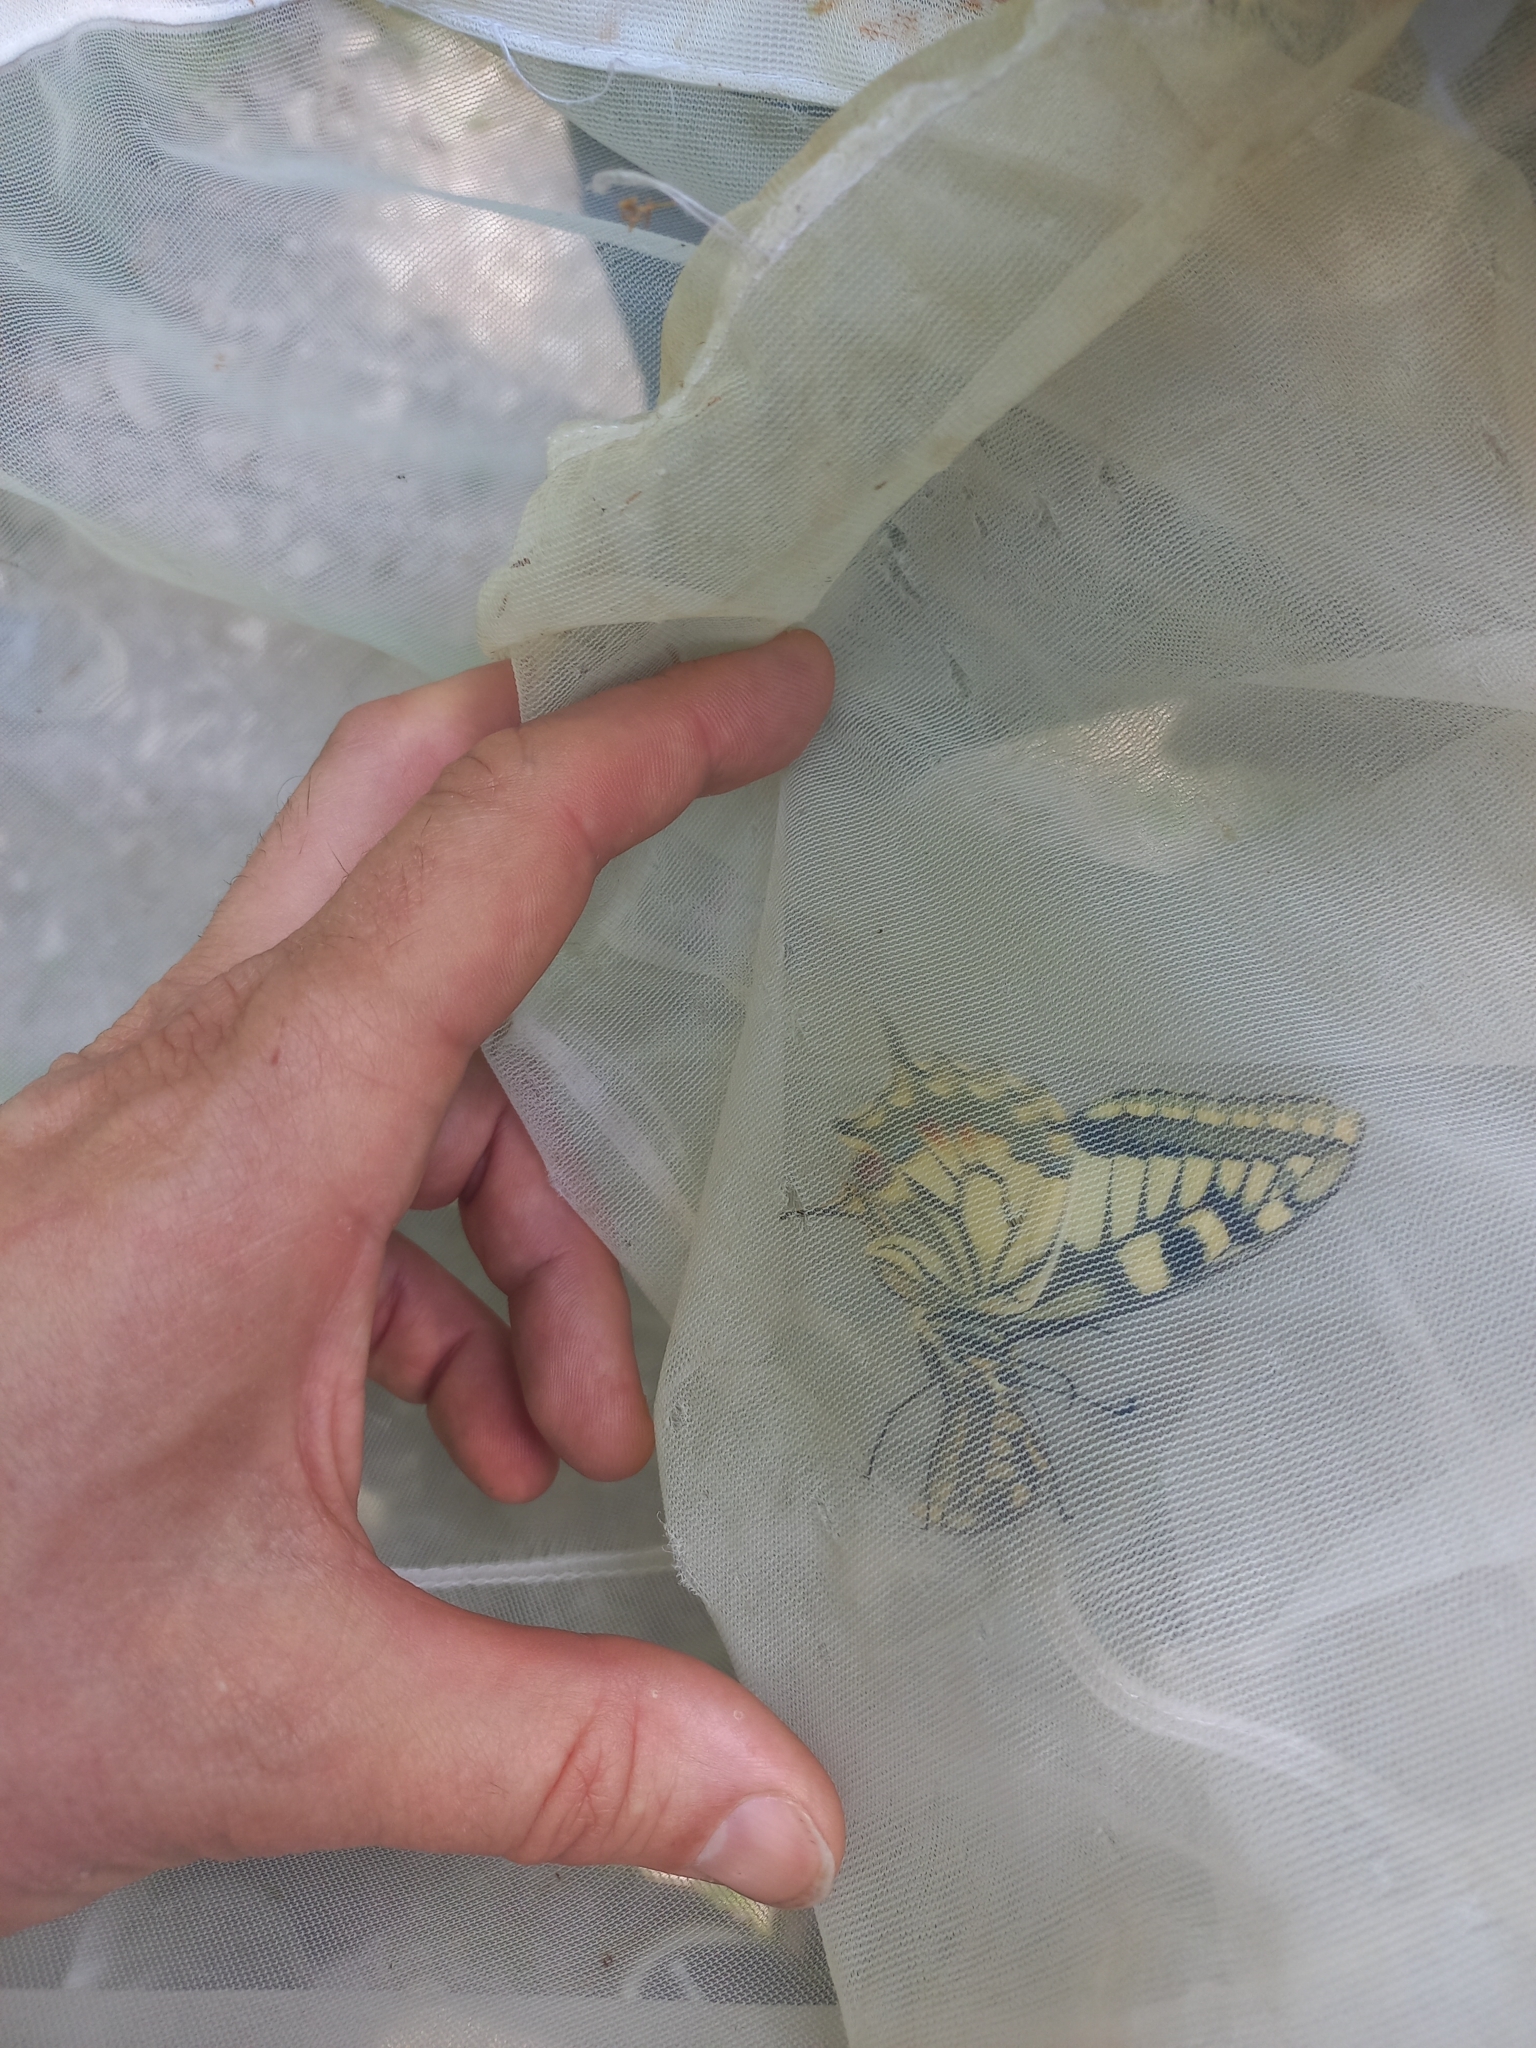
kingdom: Animalia
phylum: Arthropoda
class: Insecta
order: Lepidoptera
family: Papilionidae
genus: Papilio
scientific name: Papilio machaon
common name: Swallowtail
